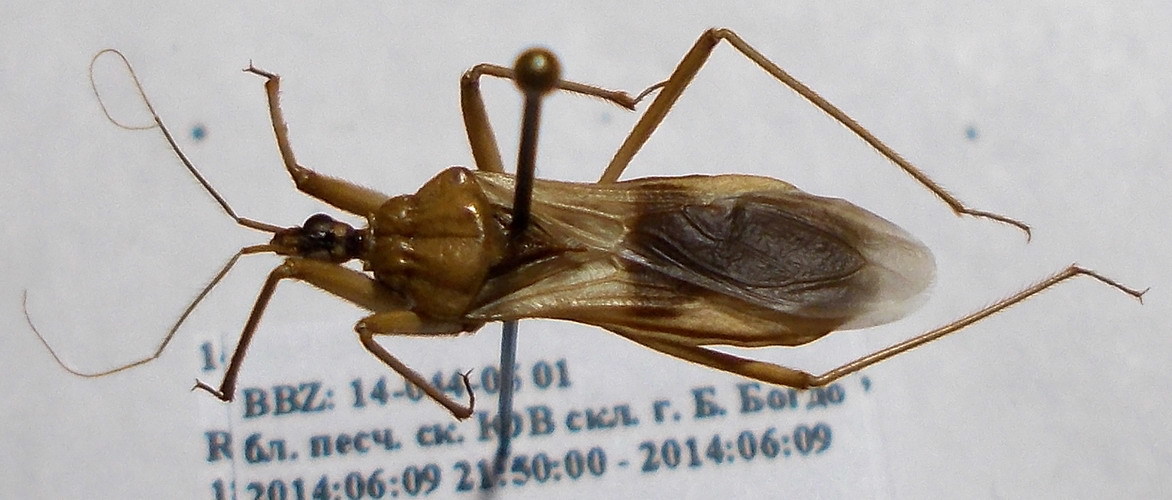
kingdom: Animalia
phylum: Arthropoda
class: Insecta
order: Hemiptera
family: Reduviidae
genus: Reduvius
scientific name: Reduvius testaceus
